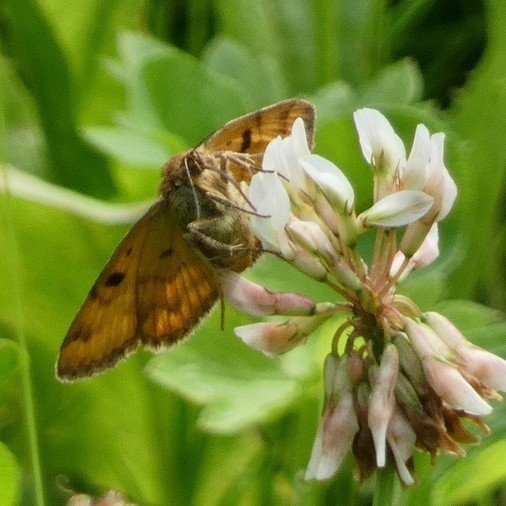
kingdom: Animalia
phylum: Arthropoda
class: Insecta
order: Lepidoptera
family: Erebidae
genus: Euclidia
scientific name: Euclidia glyphica
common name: Burnet companion
